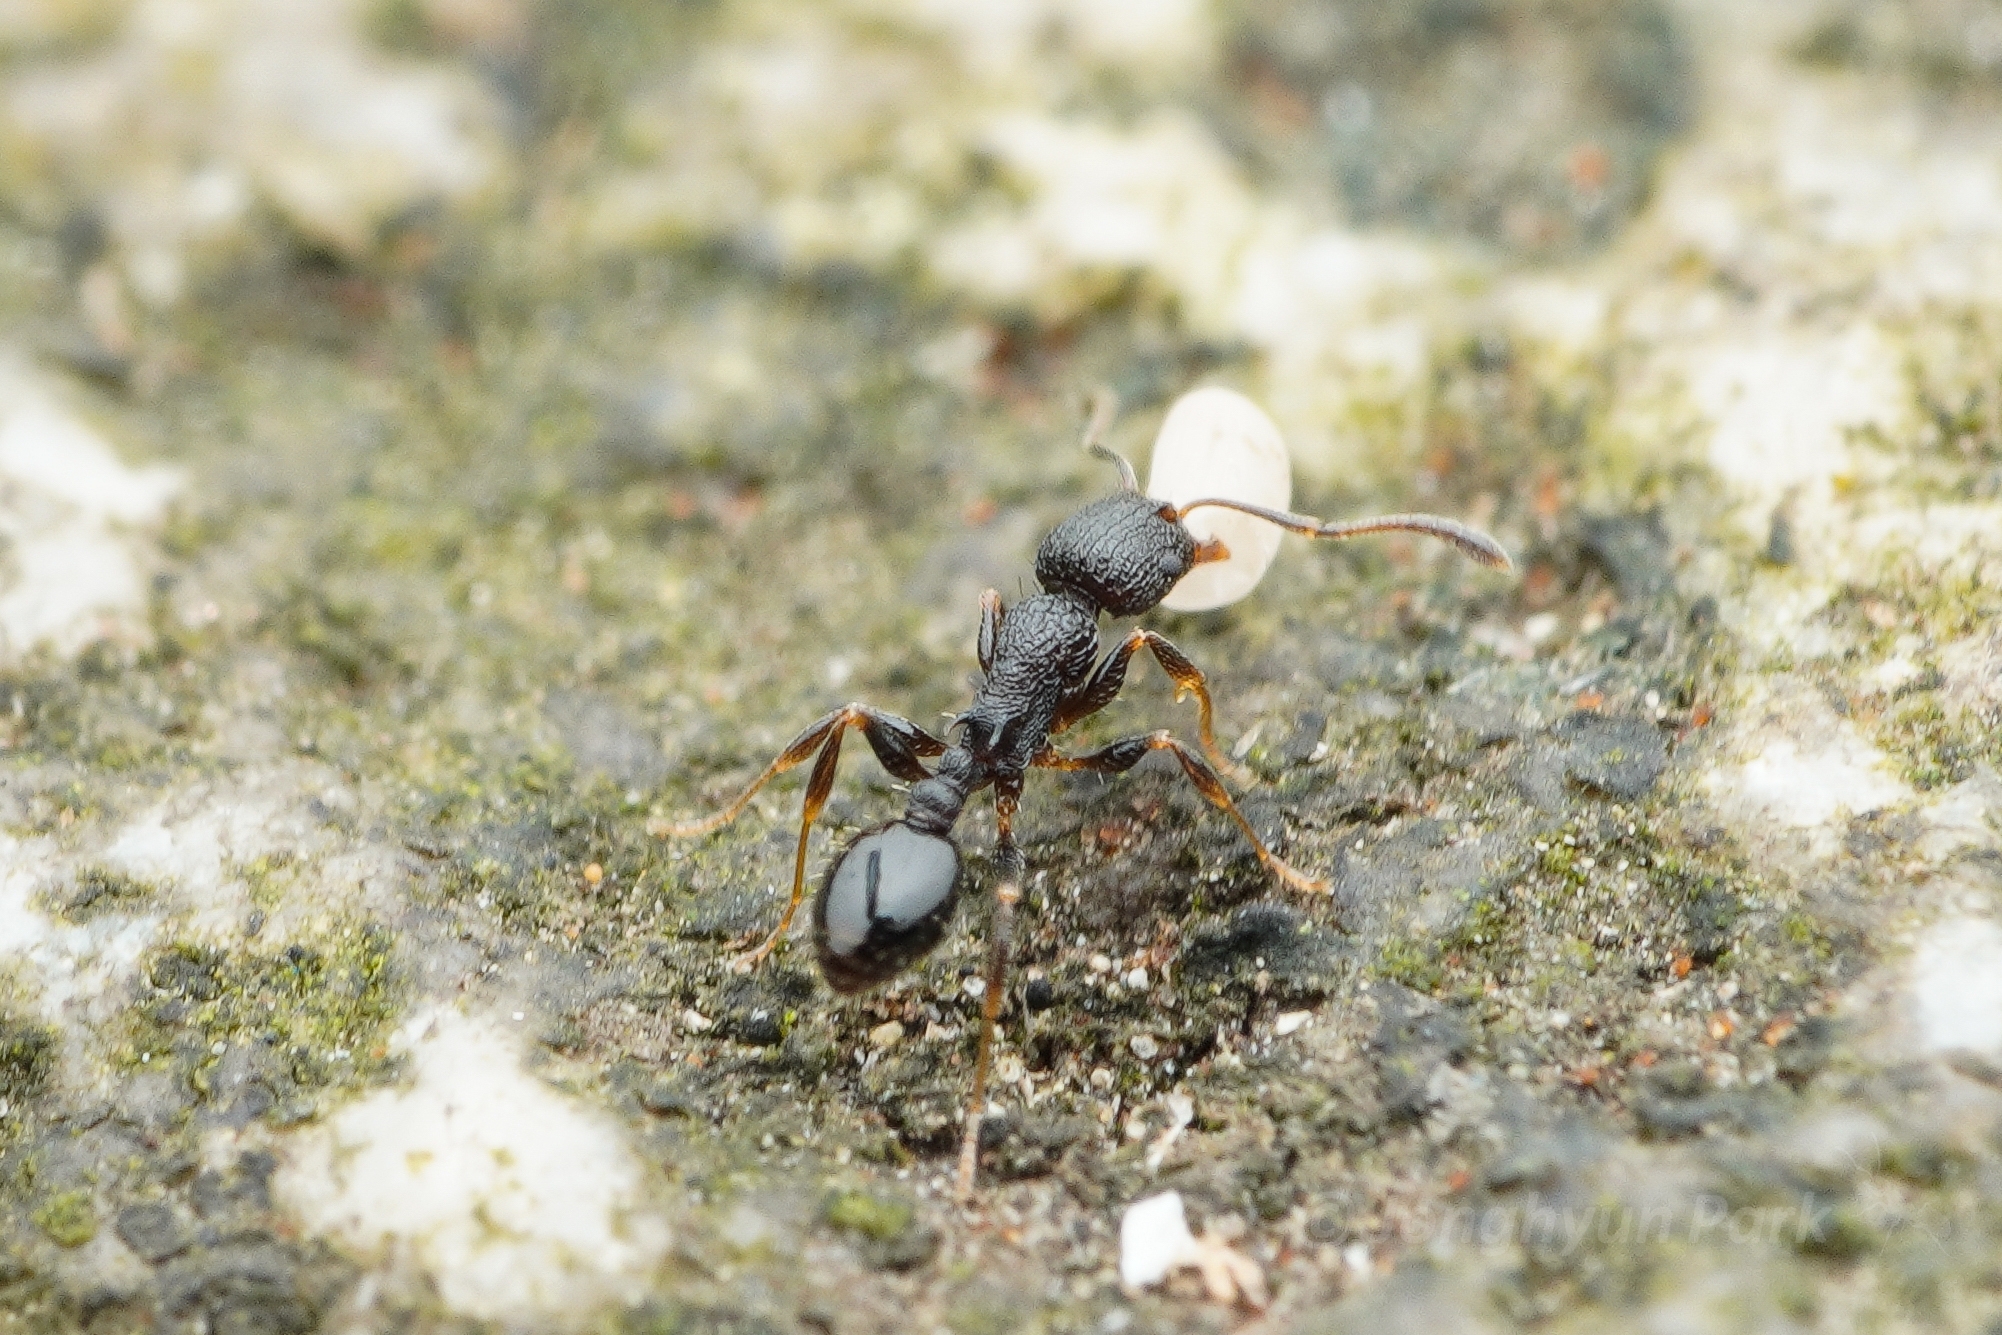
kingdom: Animalia
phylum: Arthropoda
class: Insecta
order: Hymenoptera
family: Formicidae
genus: Temnothorax
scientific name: Temnothorax
